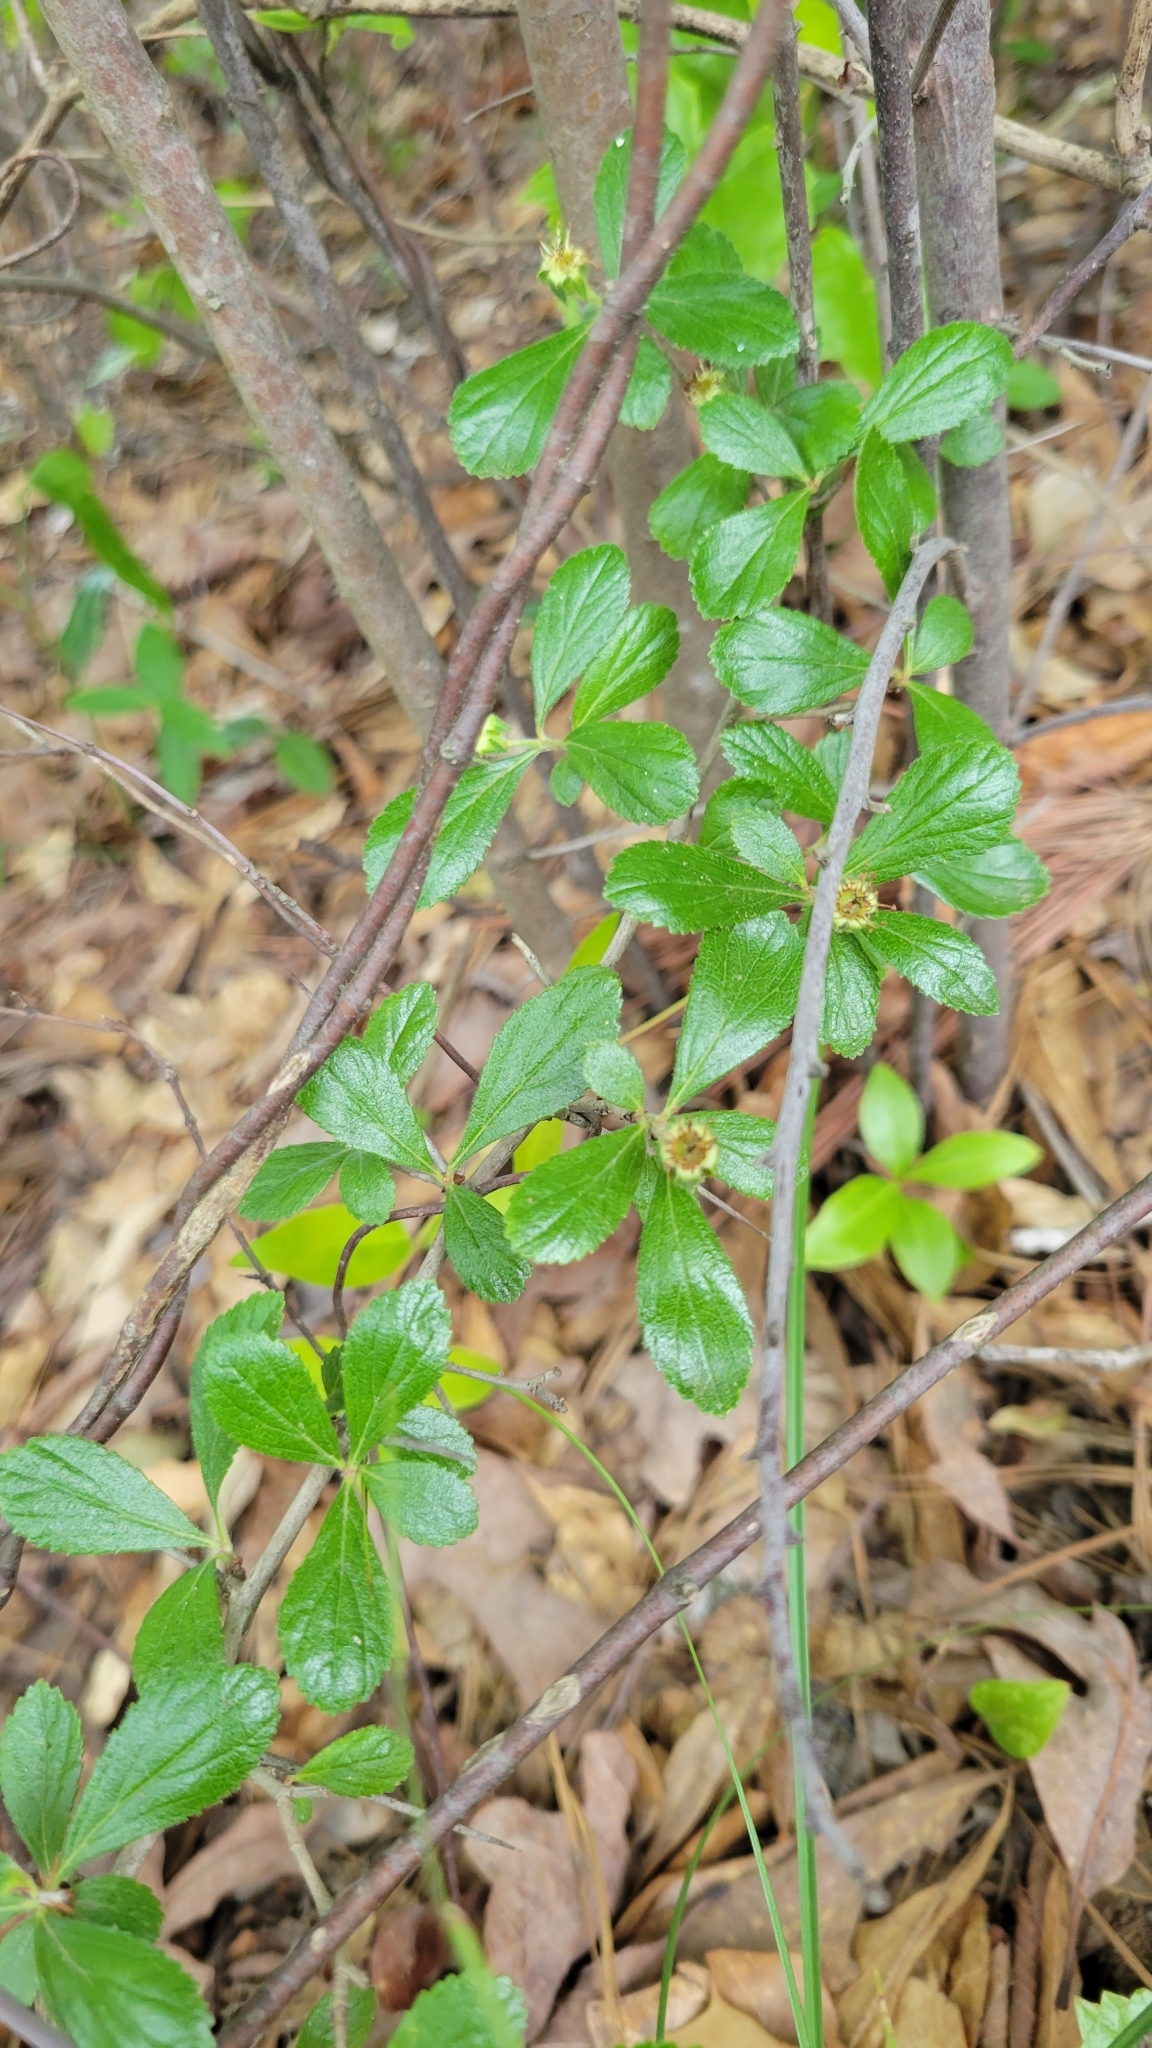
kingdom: Plantae
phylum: Tracheophyta
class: Magnoliopsida
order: Rosales
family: Rosaceae
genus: Crataegus
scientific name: Crataegus uniflora
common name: One-flower hawthorn
